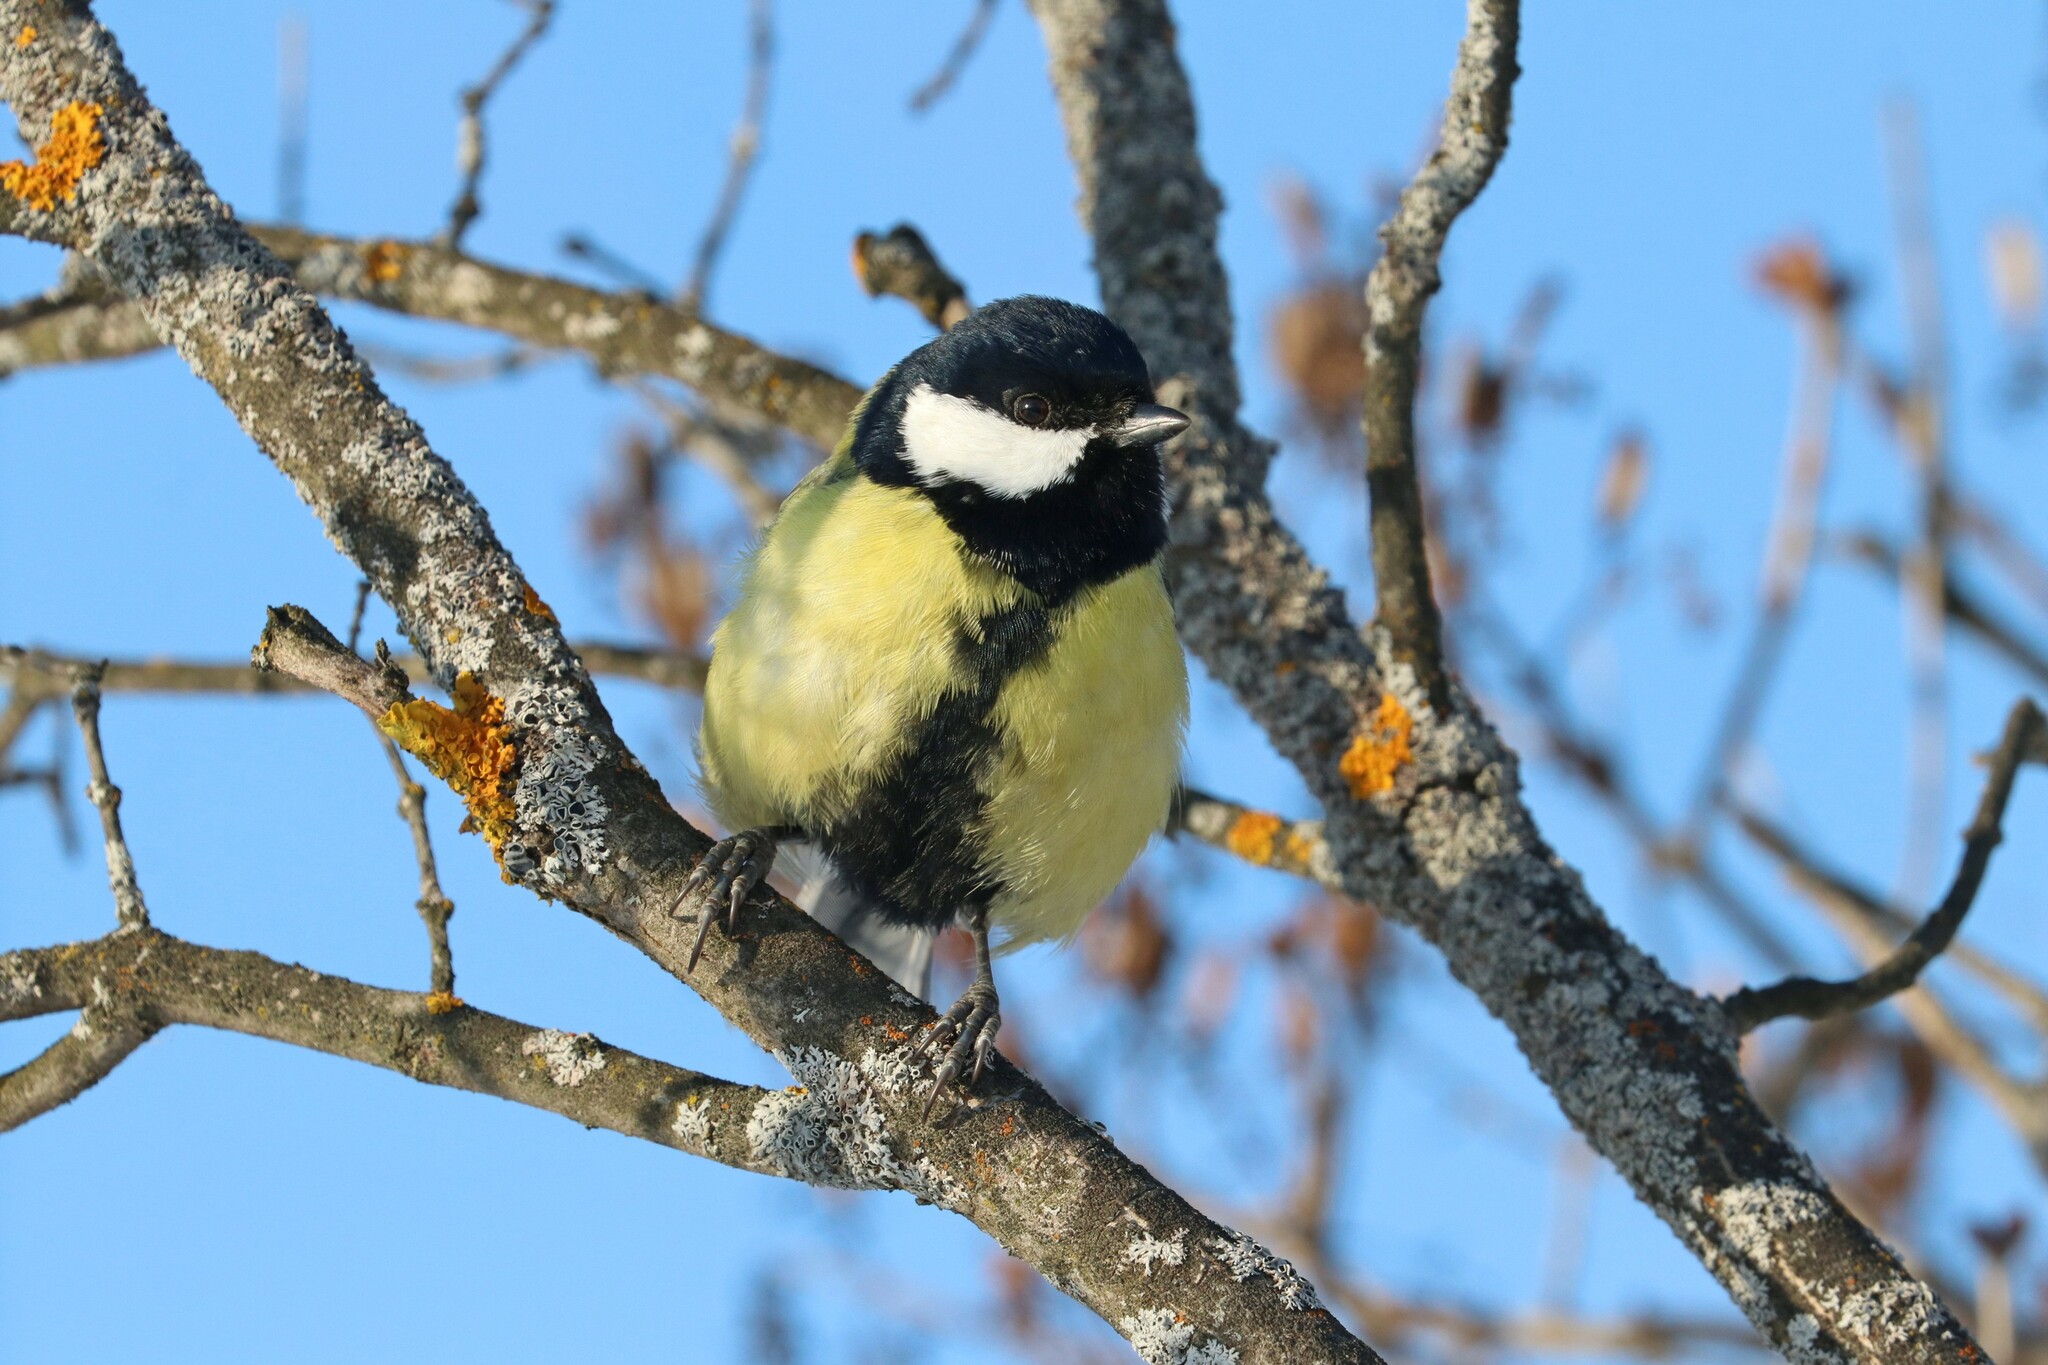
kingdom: Animalia
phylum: Chordata
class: Aves
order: Passeriformes
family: Paridae
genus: Parus
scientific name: Parus major
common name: Great tit
